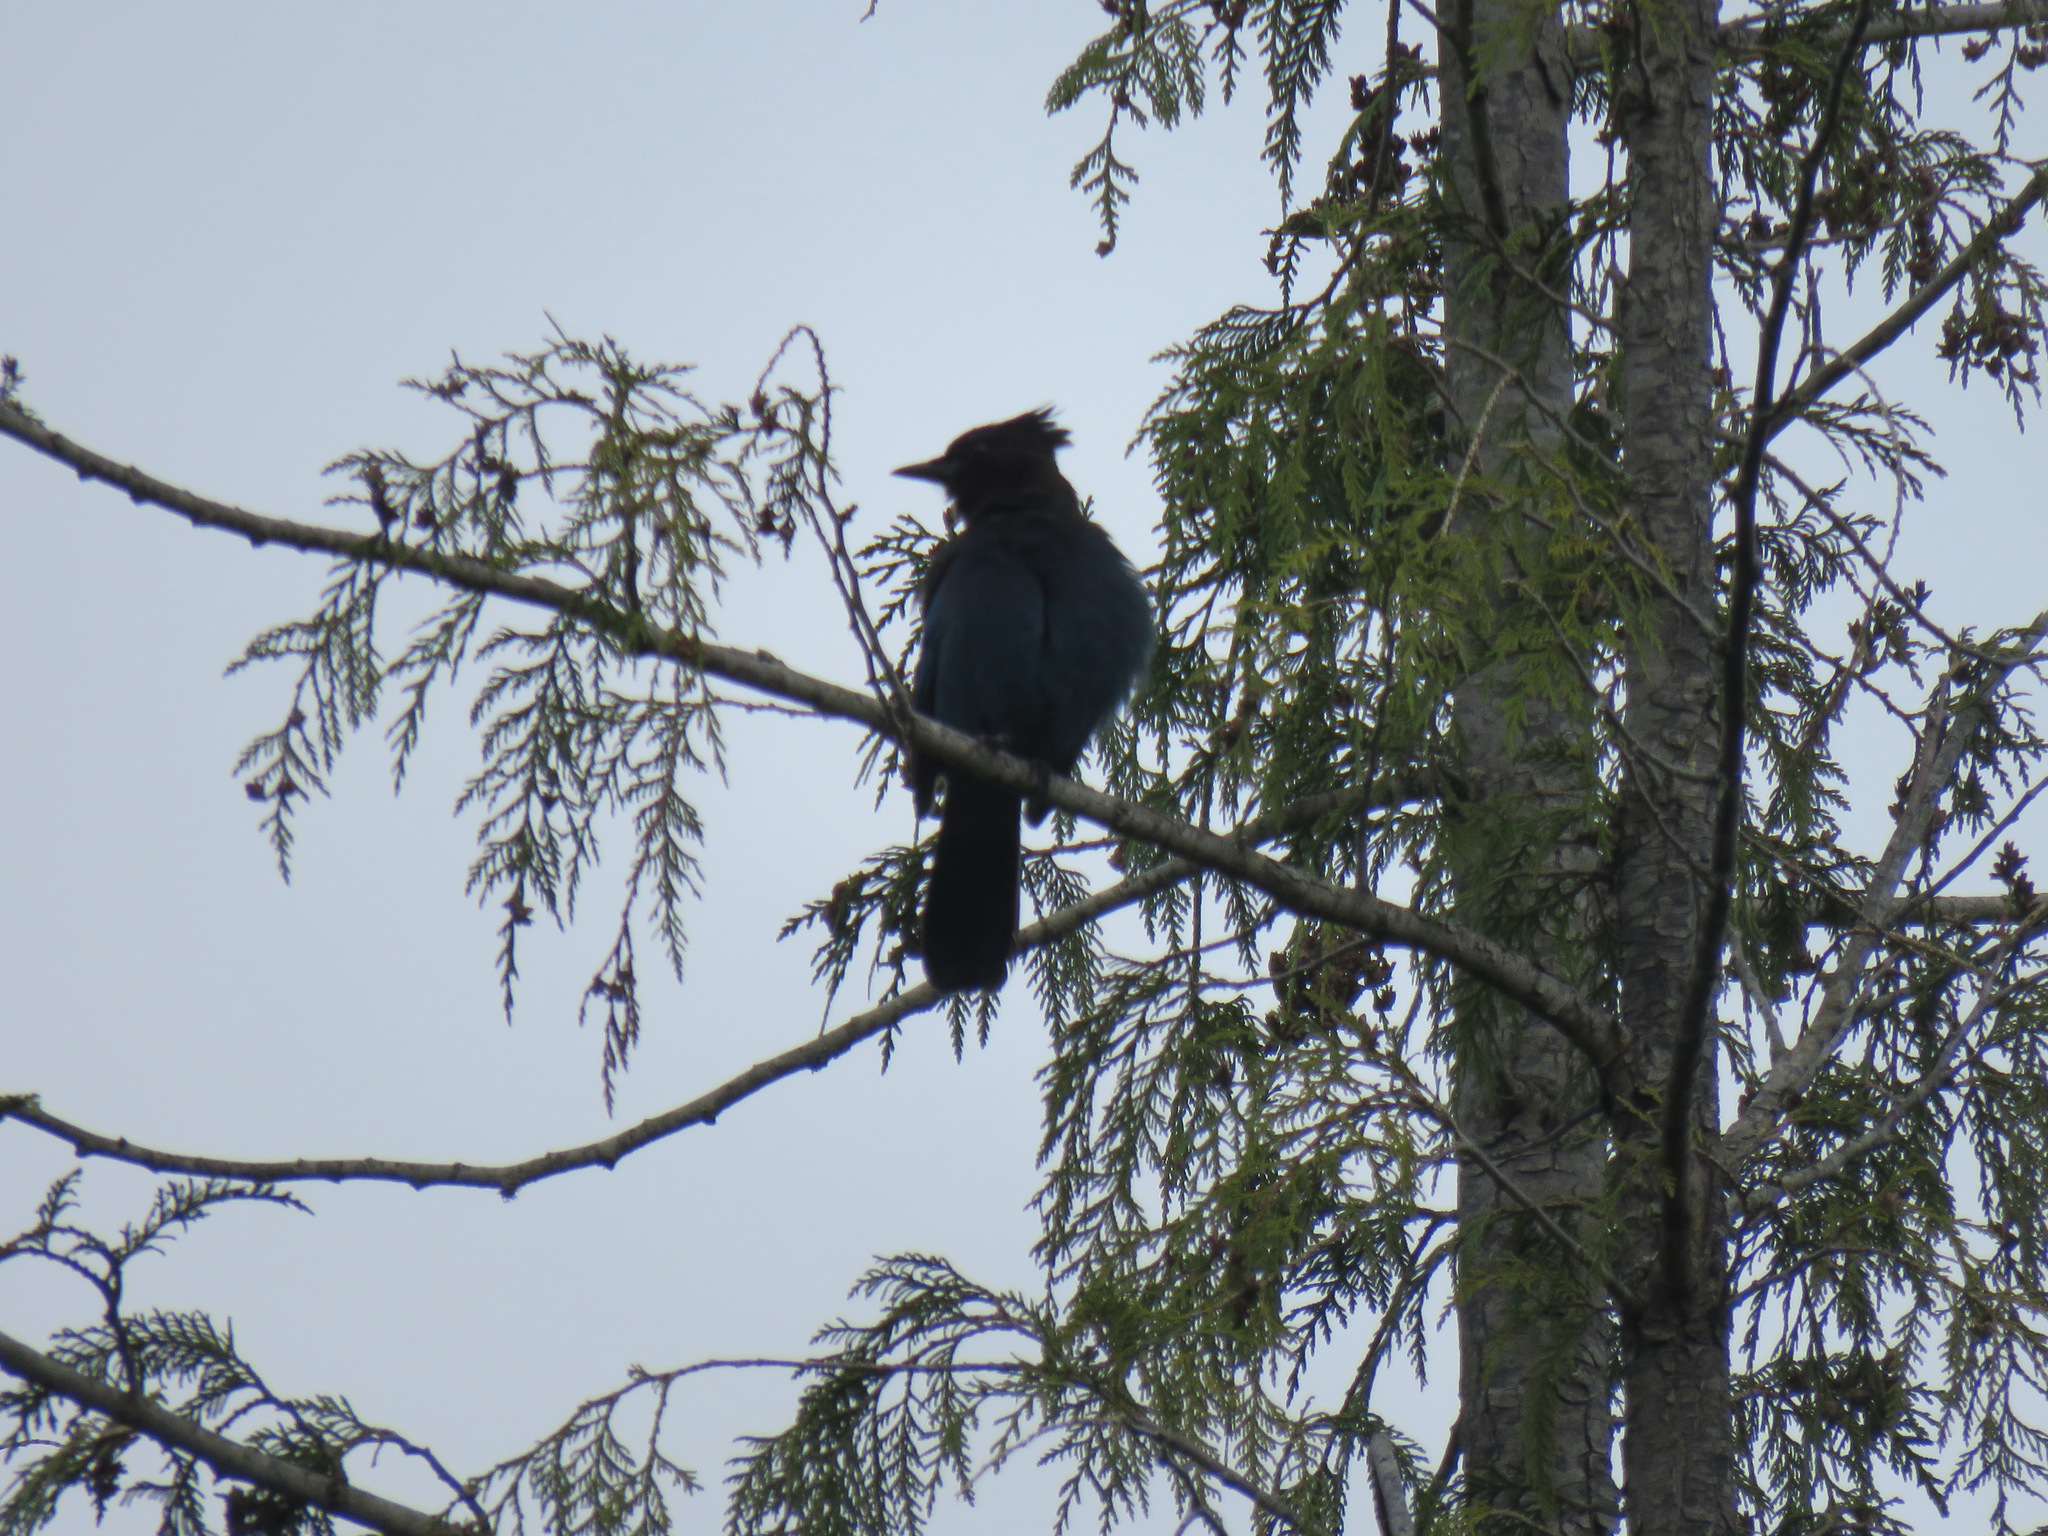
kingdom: Animalia
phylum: Chordata
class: Aves
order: Passeriformes
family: Corvidae
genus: Cyanocitta
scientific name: Cyanocitta stelleri
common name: Steller's jay
